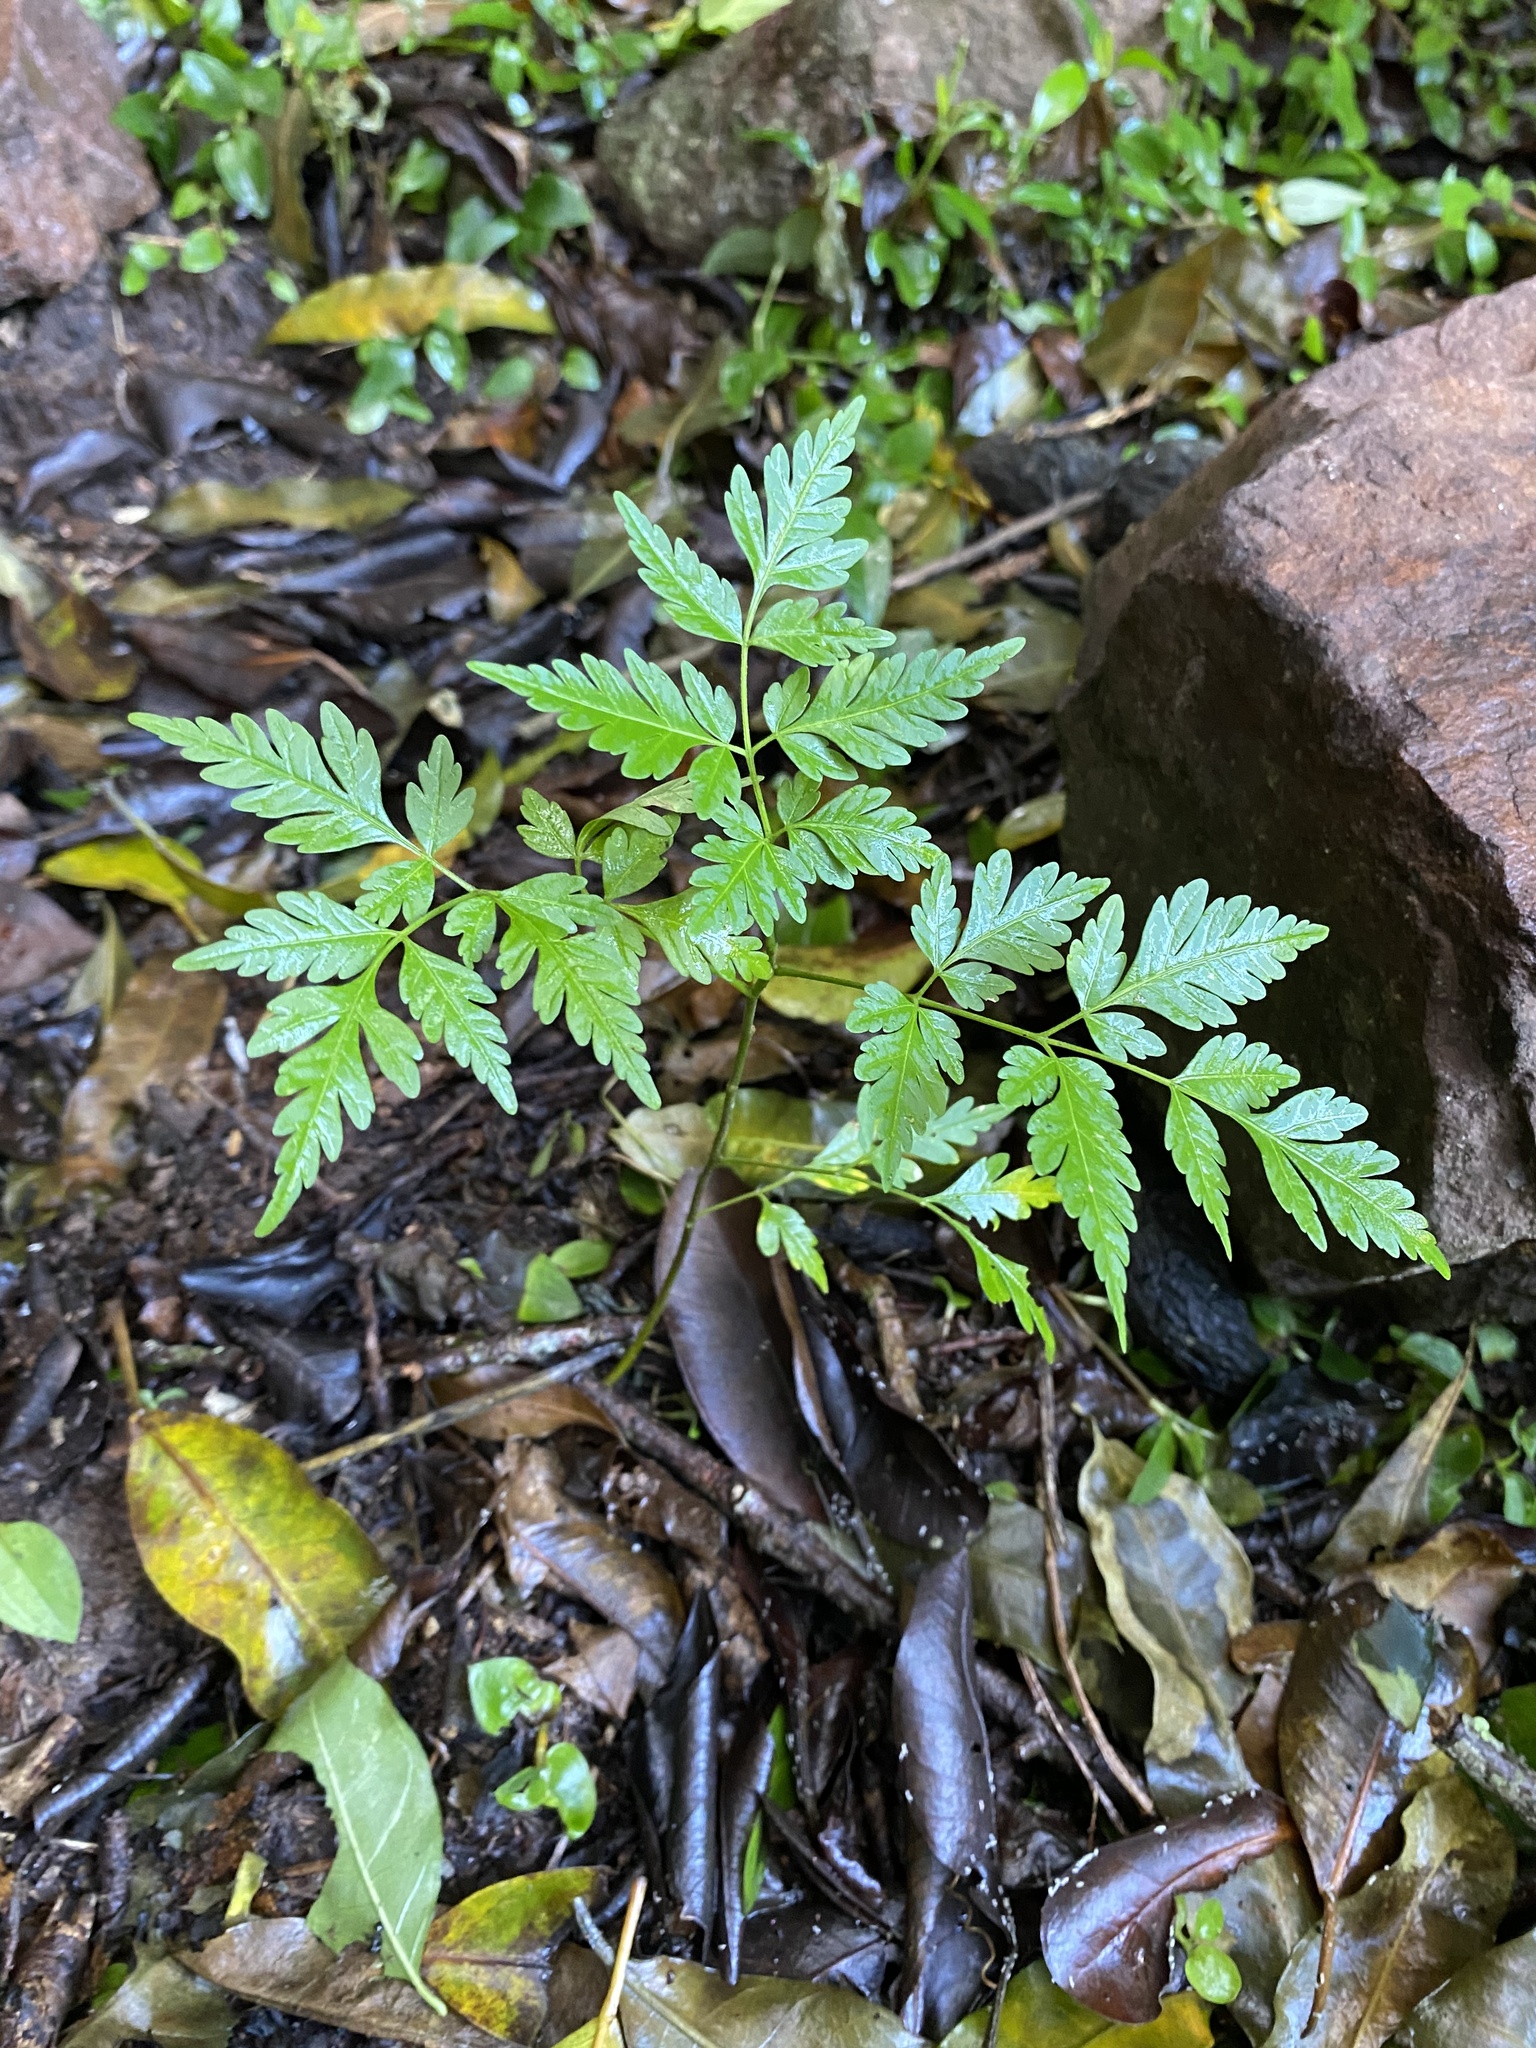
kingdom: Plantae
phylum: Tracheophyta
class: Magnoliopsida
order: Sapindales
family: Meliaceae
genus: Melia
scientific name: Melia azedarach
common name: Chinaberrytree
